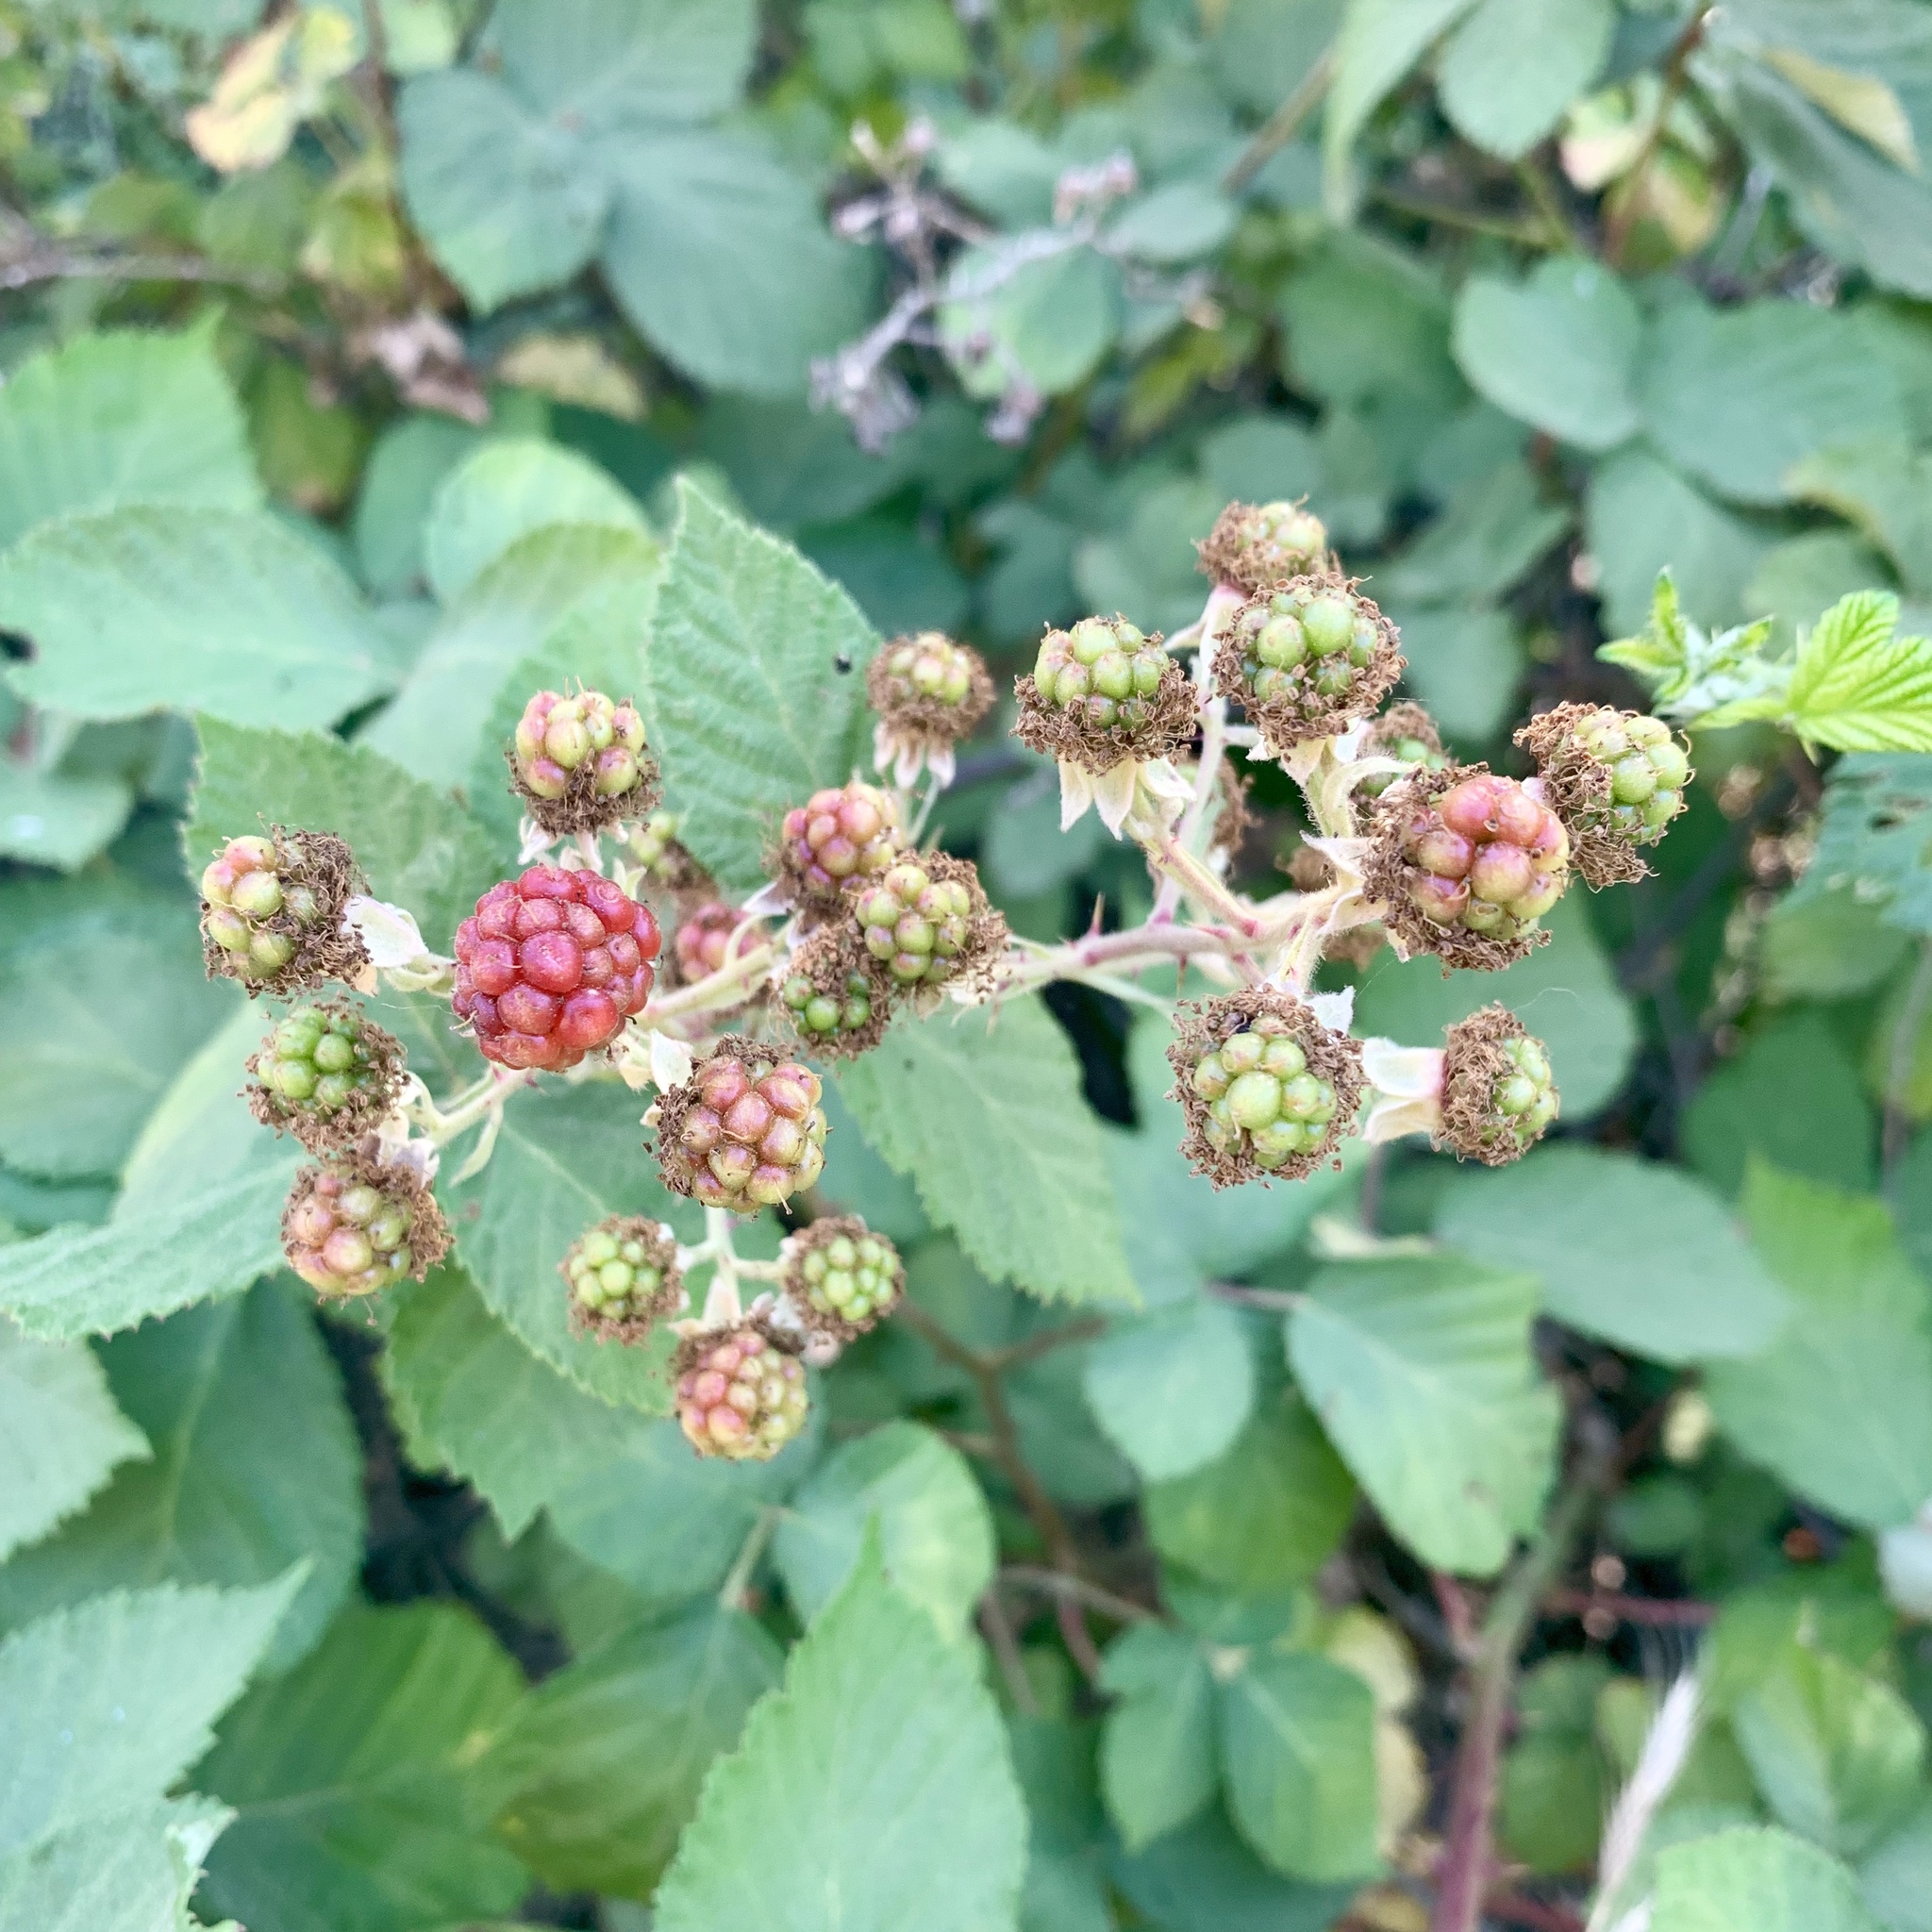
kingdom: Plantae
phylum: Tracheophyta
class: Magnoliopsida
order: Rosales
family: Rosaceae
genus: Rubus
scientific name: Rubus armeniacus
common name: Himalayan blackberry
